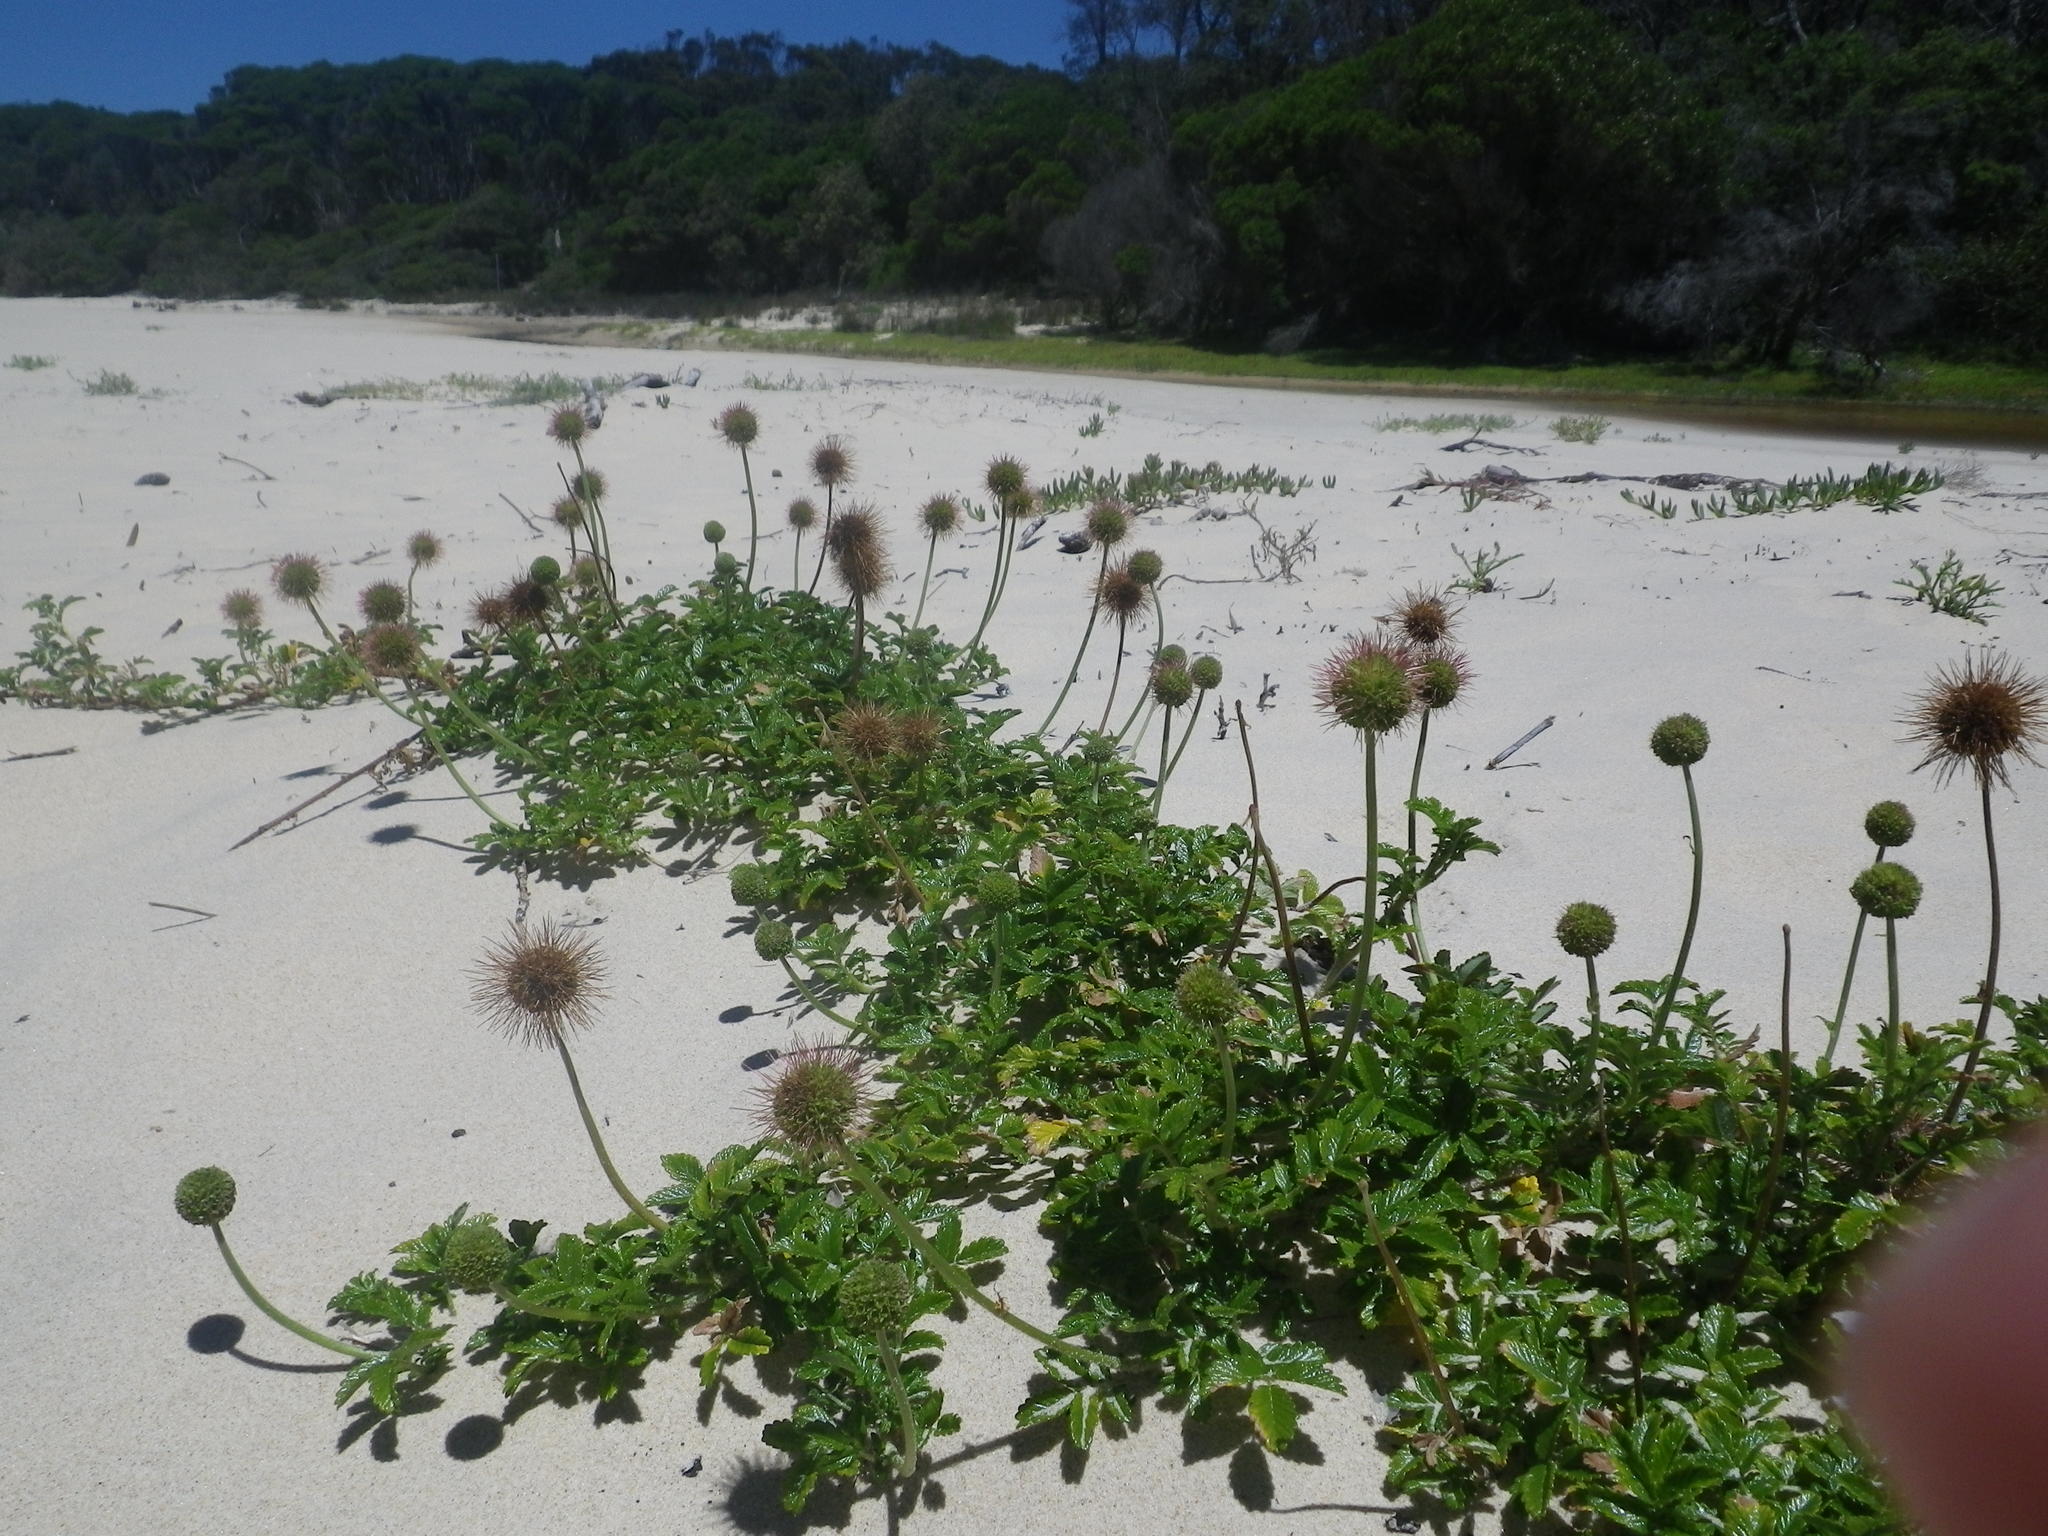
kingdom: Plantae
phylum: Tracheophyta
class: Magnoliopsida
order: Rosales
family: Rosaceae
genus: Acaena
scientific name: Acaena novae-zelandiae
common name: Pirri-pirri-bur
